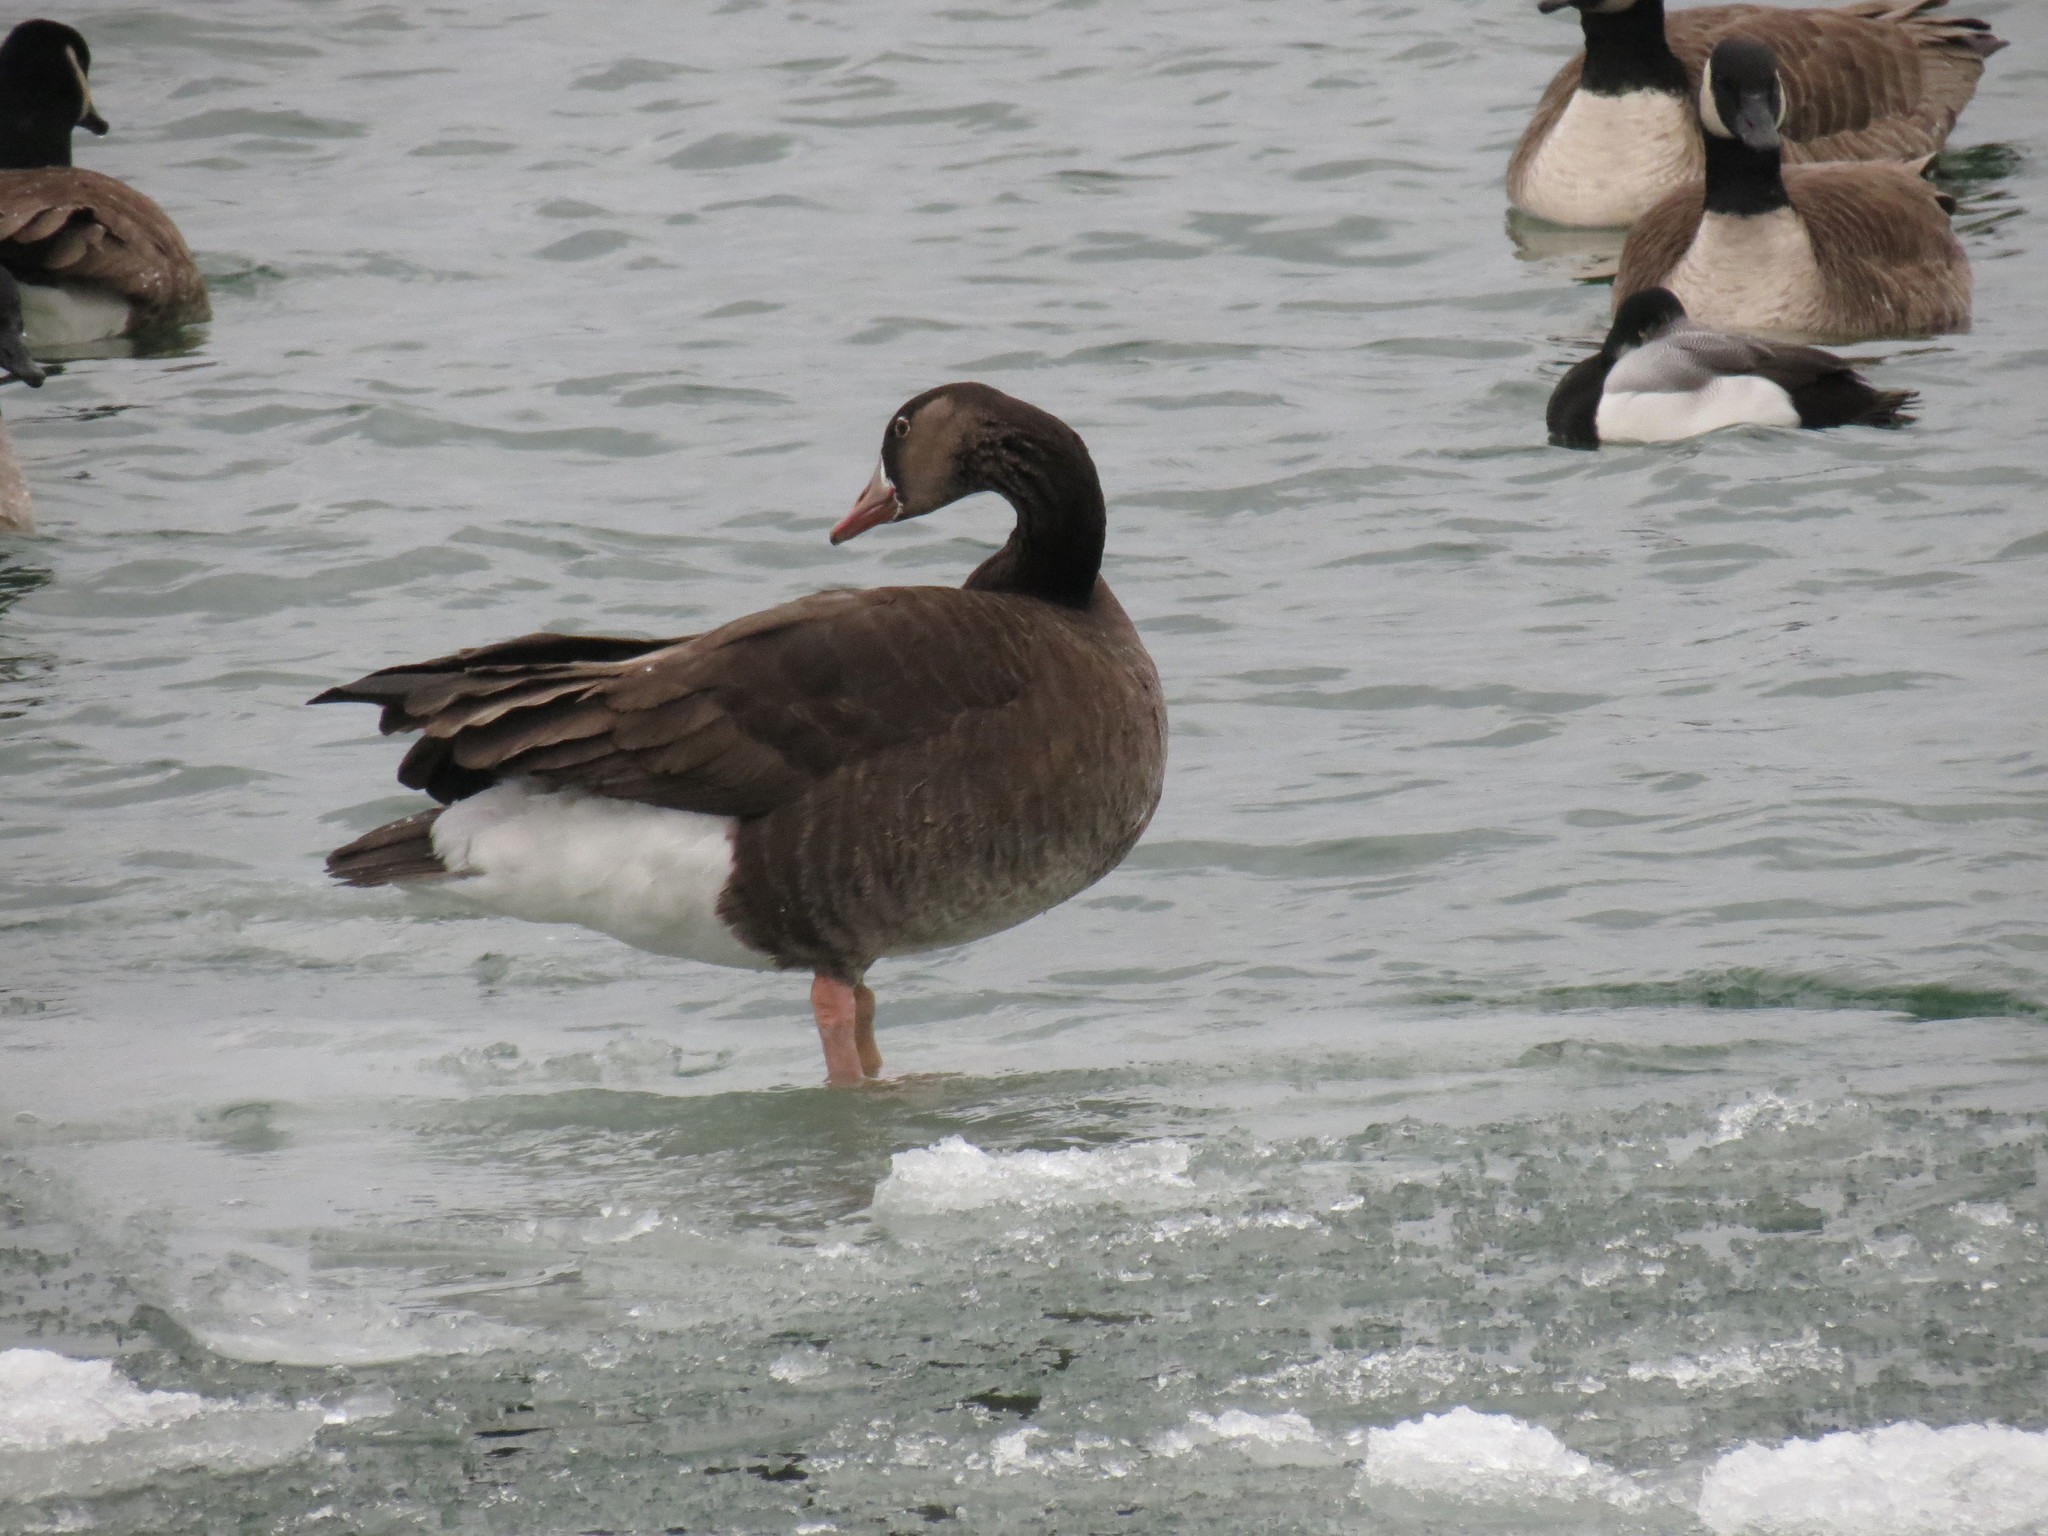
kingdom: Animalia
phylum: Chordata
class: Aves
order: Anseriformes
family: Anatidae
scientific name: Anatidae
